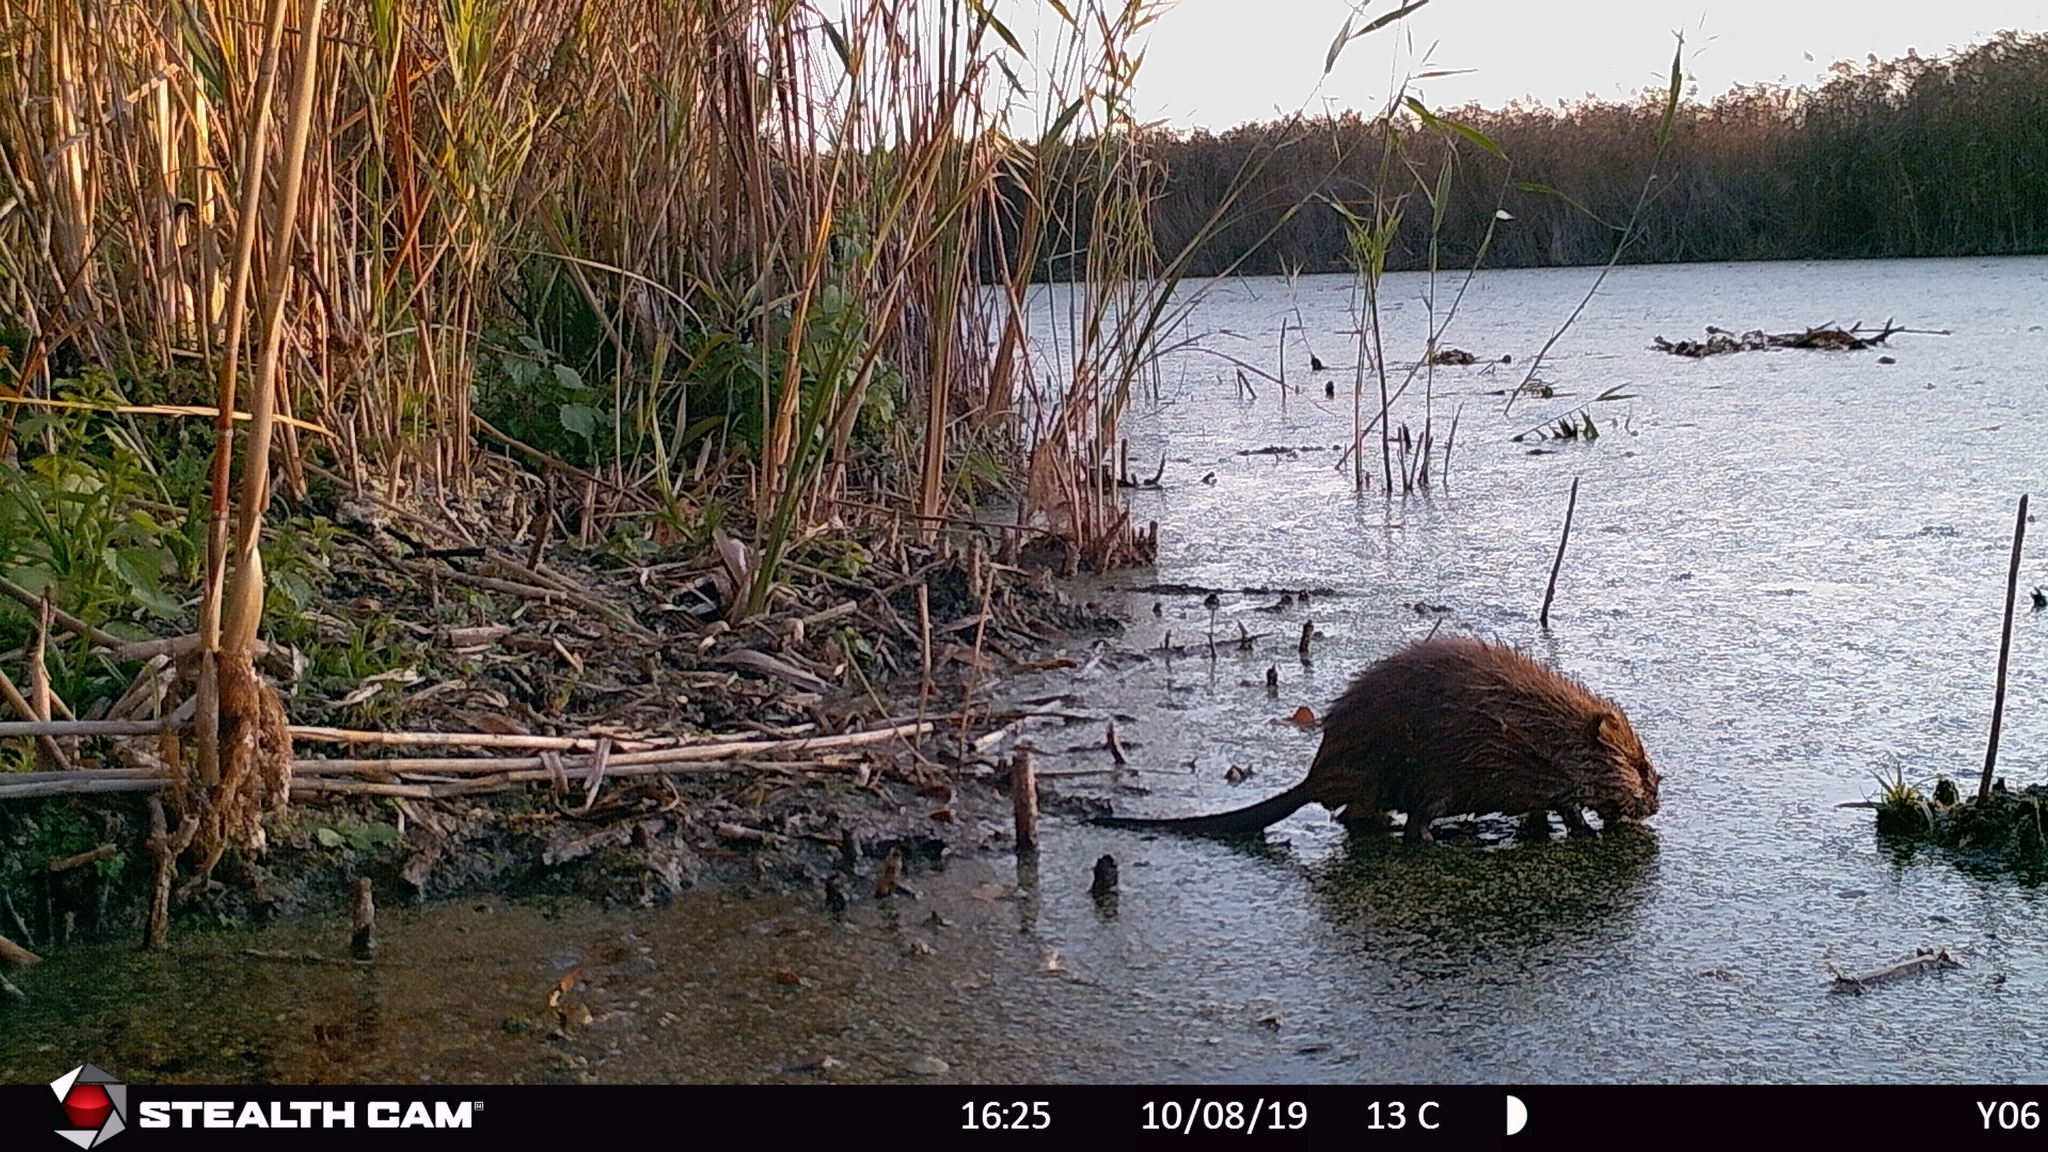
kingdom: Animalia
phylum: Chordata
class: Mammalia
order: Rodentia
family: Cricetidae
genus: Ondatra
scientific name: Ondatra zibethicus
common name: Muskrat
